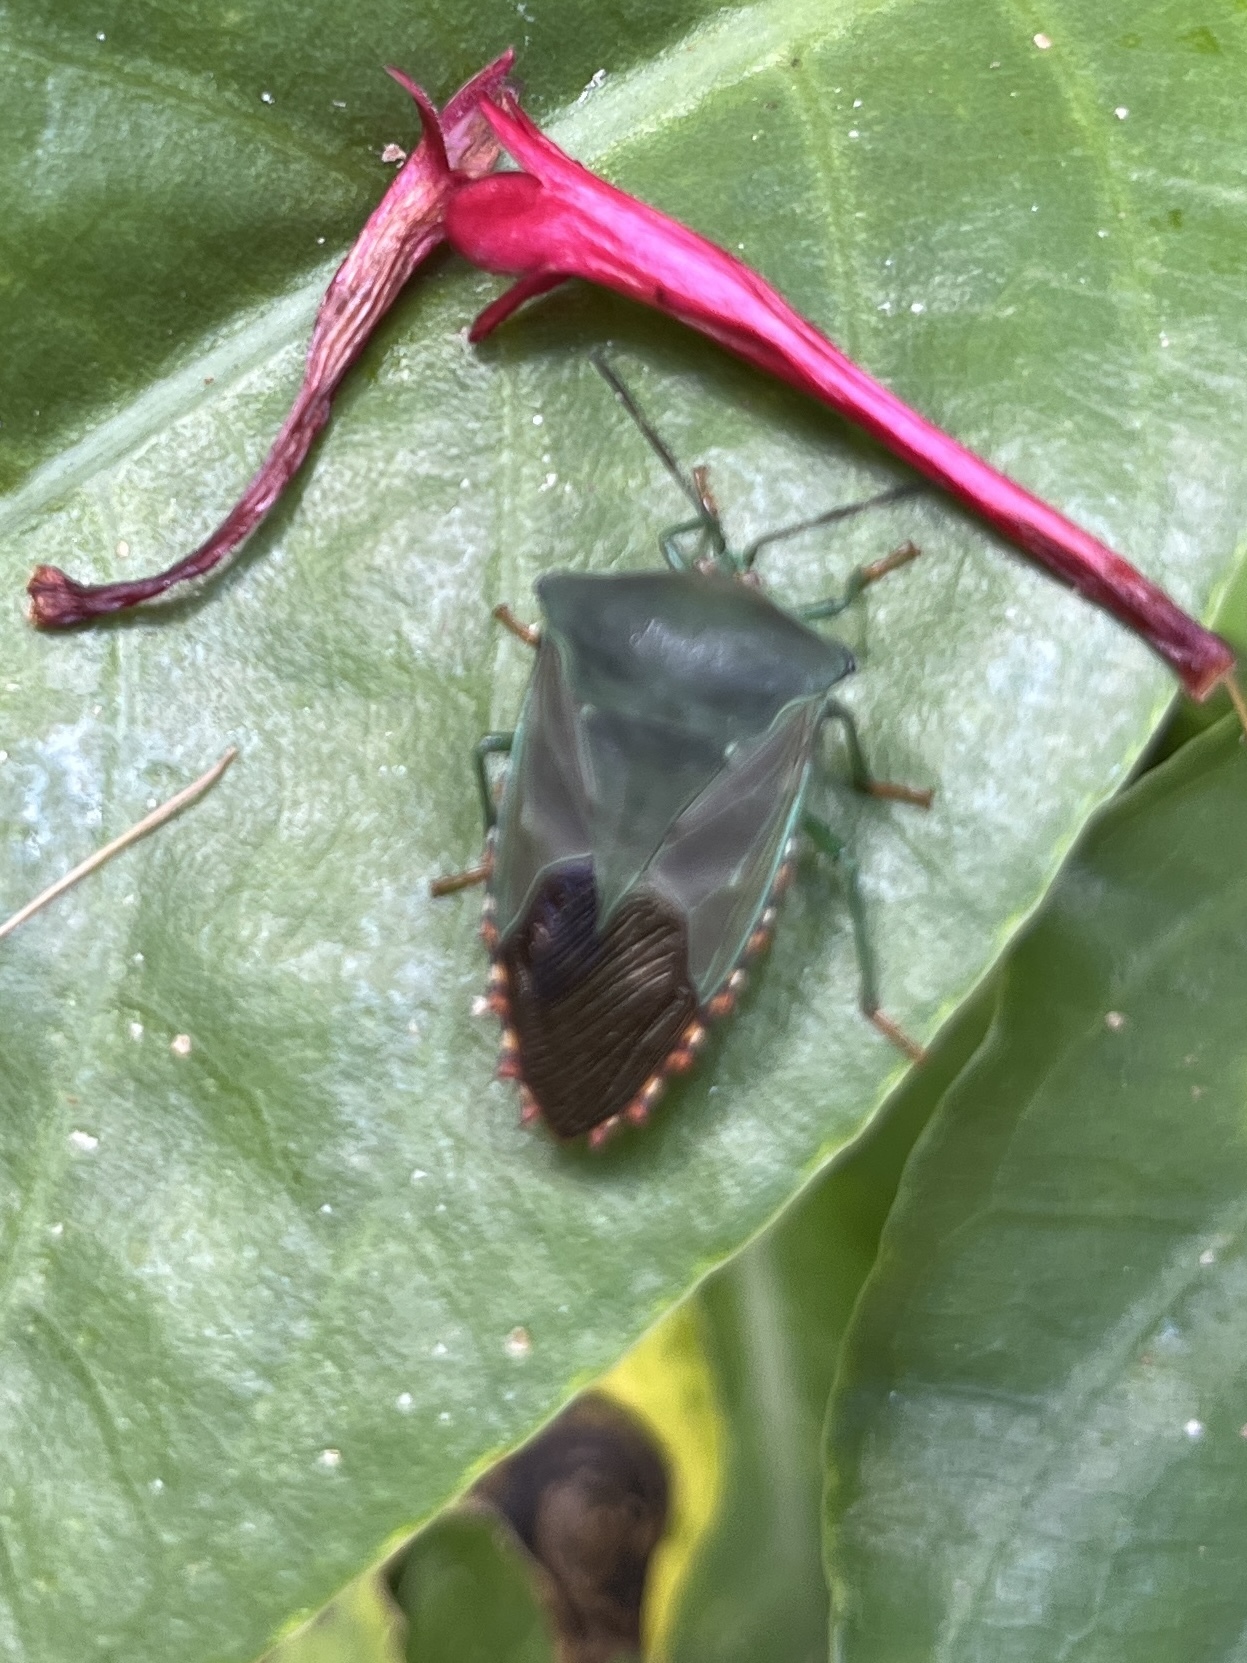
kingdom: Animalia
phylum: Arthropoda
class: Insecta
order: Hemiptera
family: Tessaratomidae
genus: Piezosternum
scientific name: Piezosternum subulatum
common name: Paula's giant shield bug
